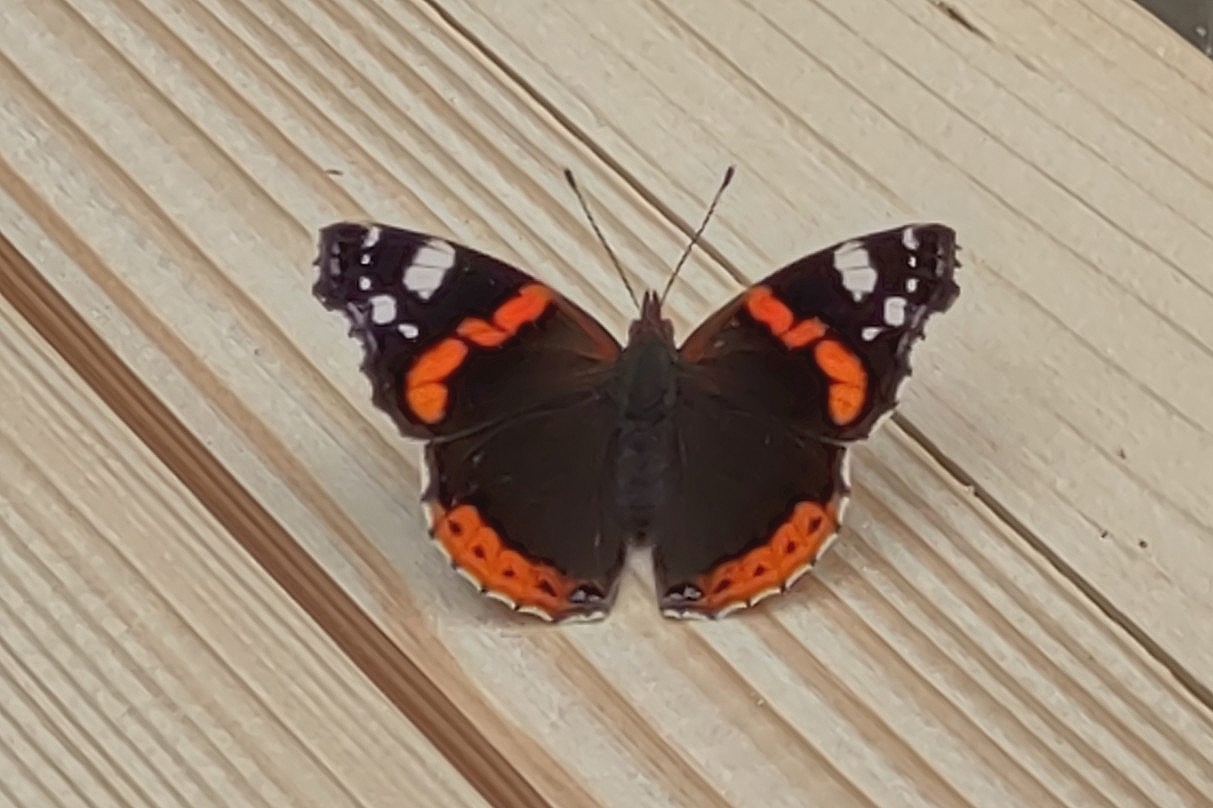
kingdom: Animalia
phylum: Arthropoda
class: Insecta
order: Lepidoptera
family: Nymphalidae
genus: Vanessa
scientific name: Vanessa atalanta
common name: Red admiral
